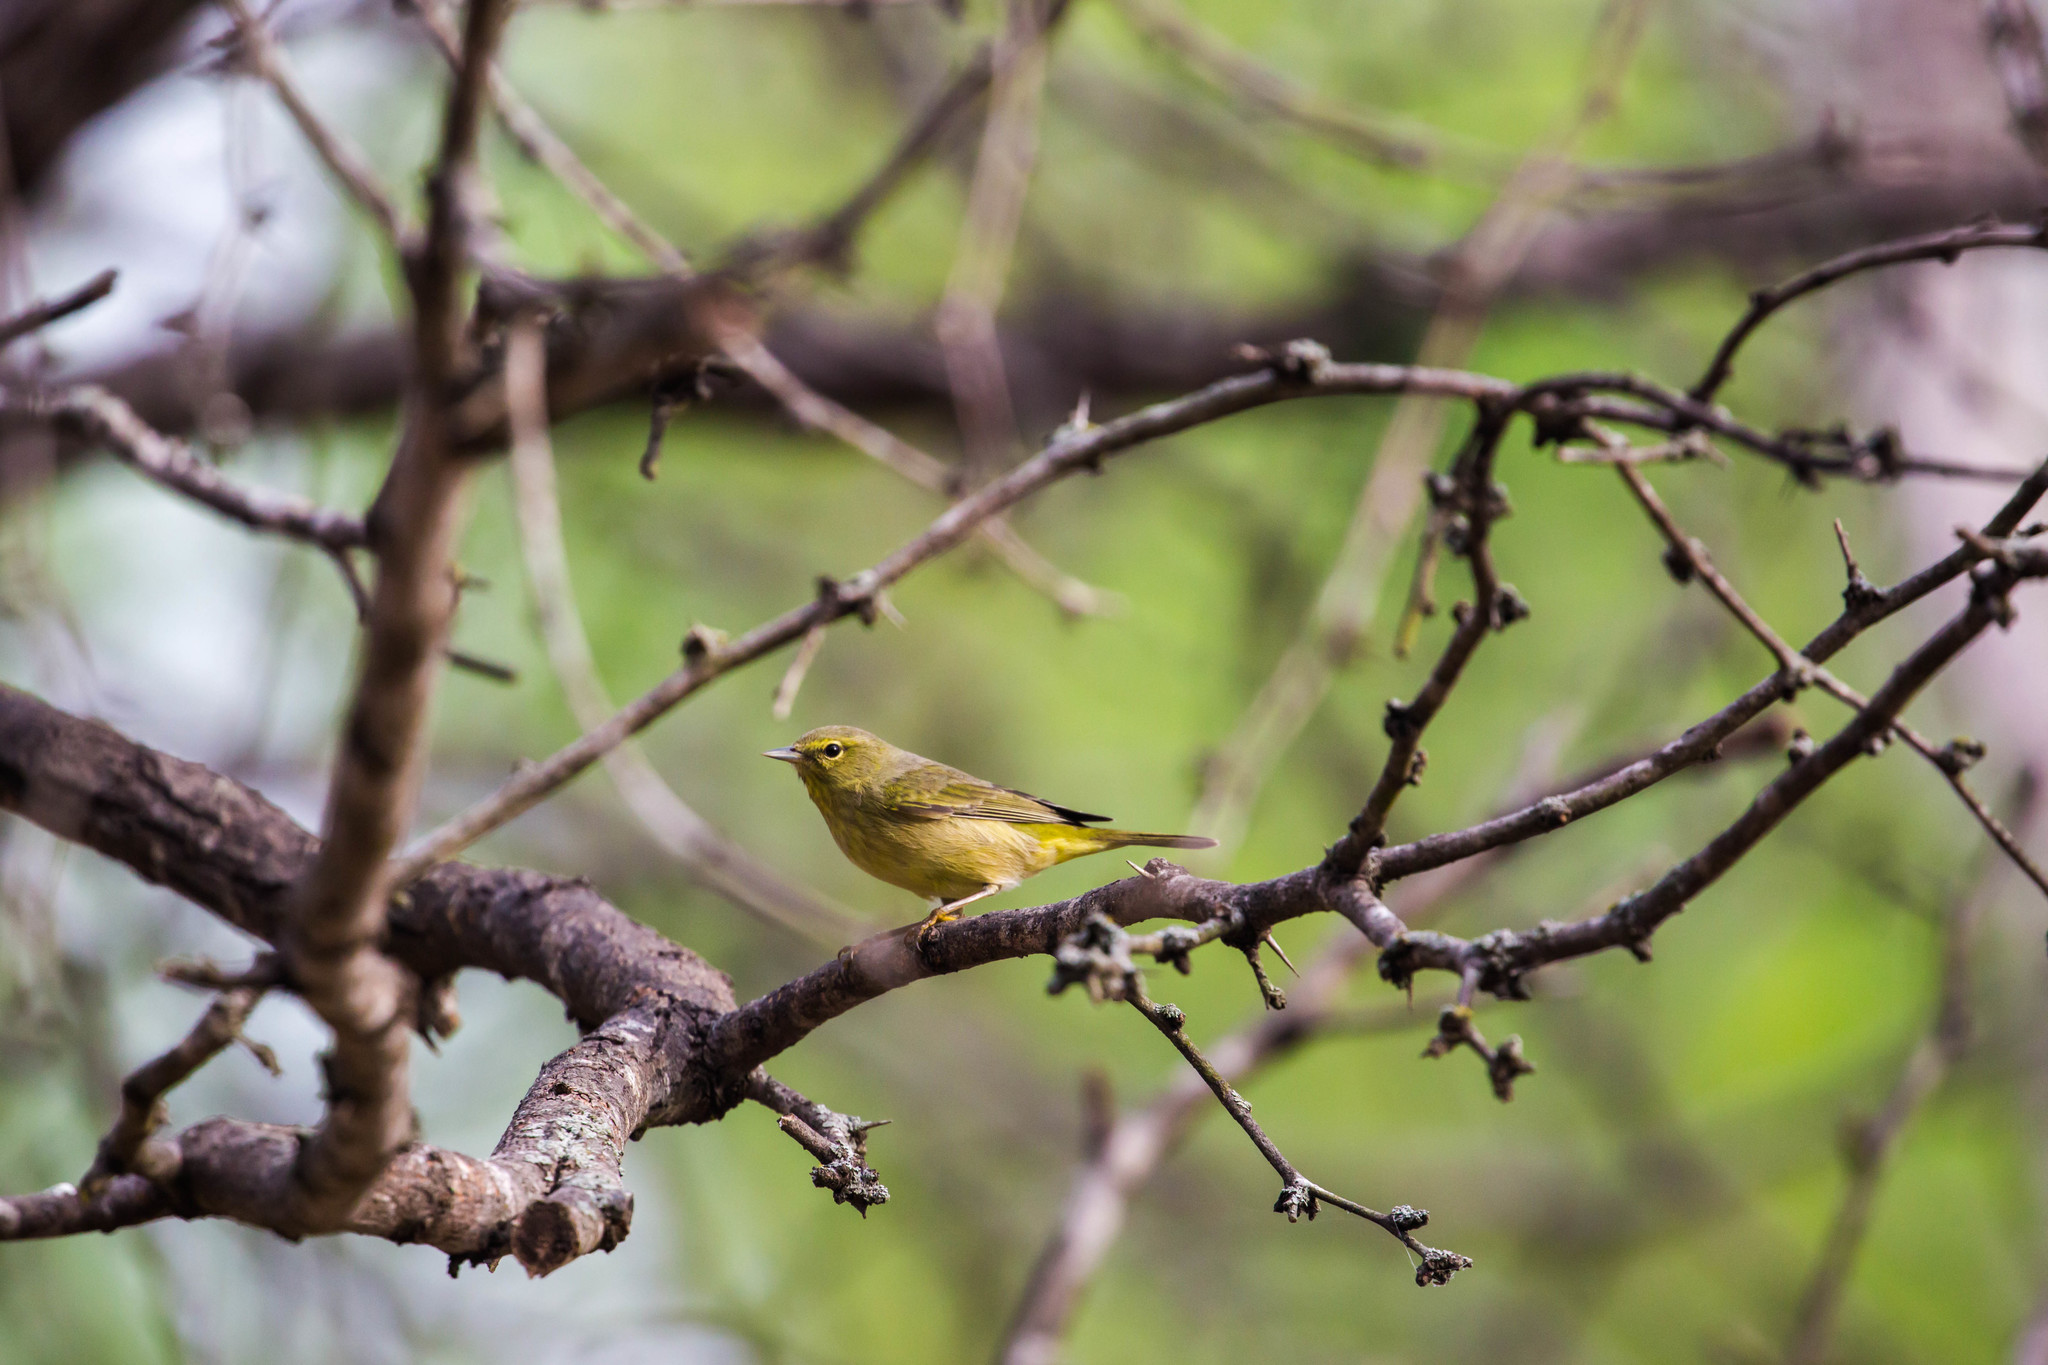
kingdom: Animalia
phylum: Chordata
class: Aves
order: Passeriformes
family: Parulidae
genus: Leiothlypis
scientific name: Leiothlypis celata
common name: Orange-crowned warbler
